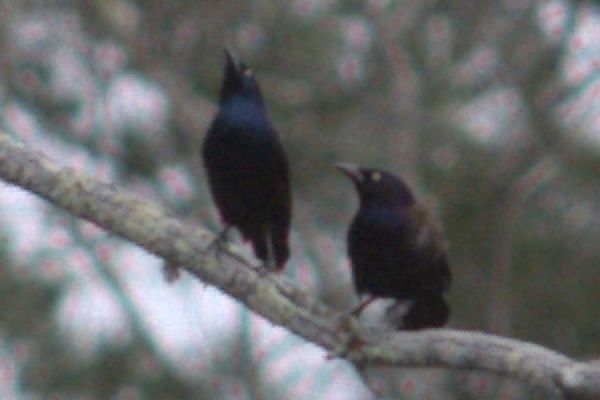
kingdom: Animalia
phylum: Chordata
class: Aves
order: Passeriformes
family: Icteridae
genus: Quiscalus
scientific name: Quiscalus quiscula
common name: Common grackle
